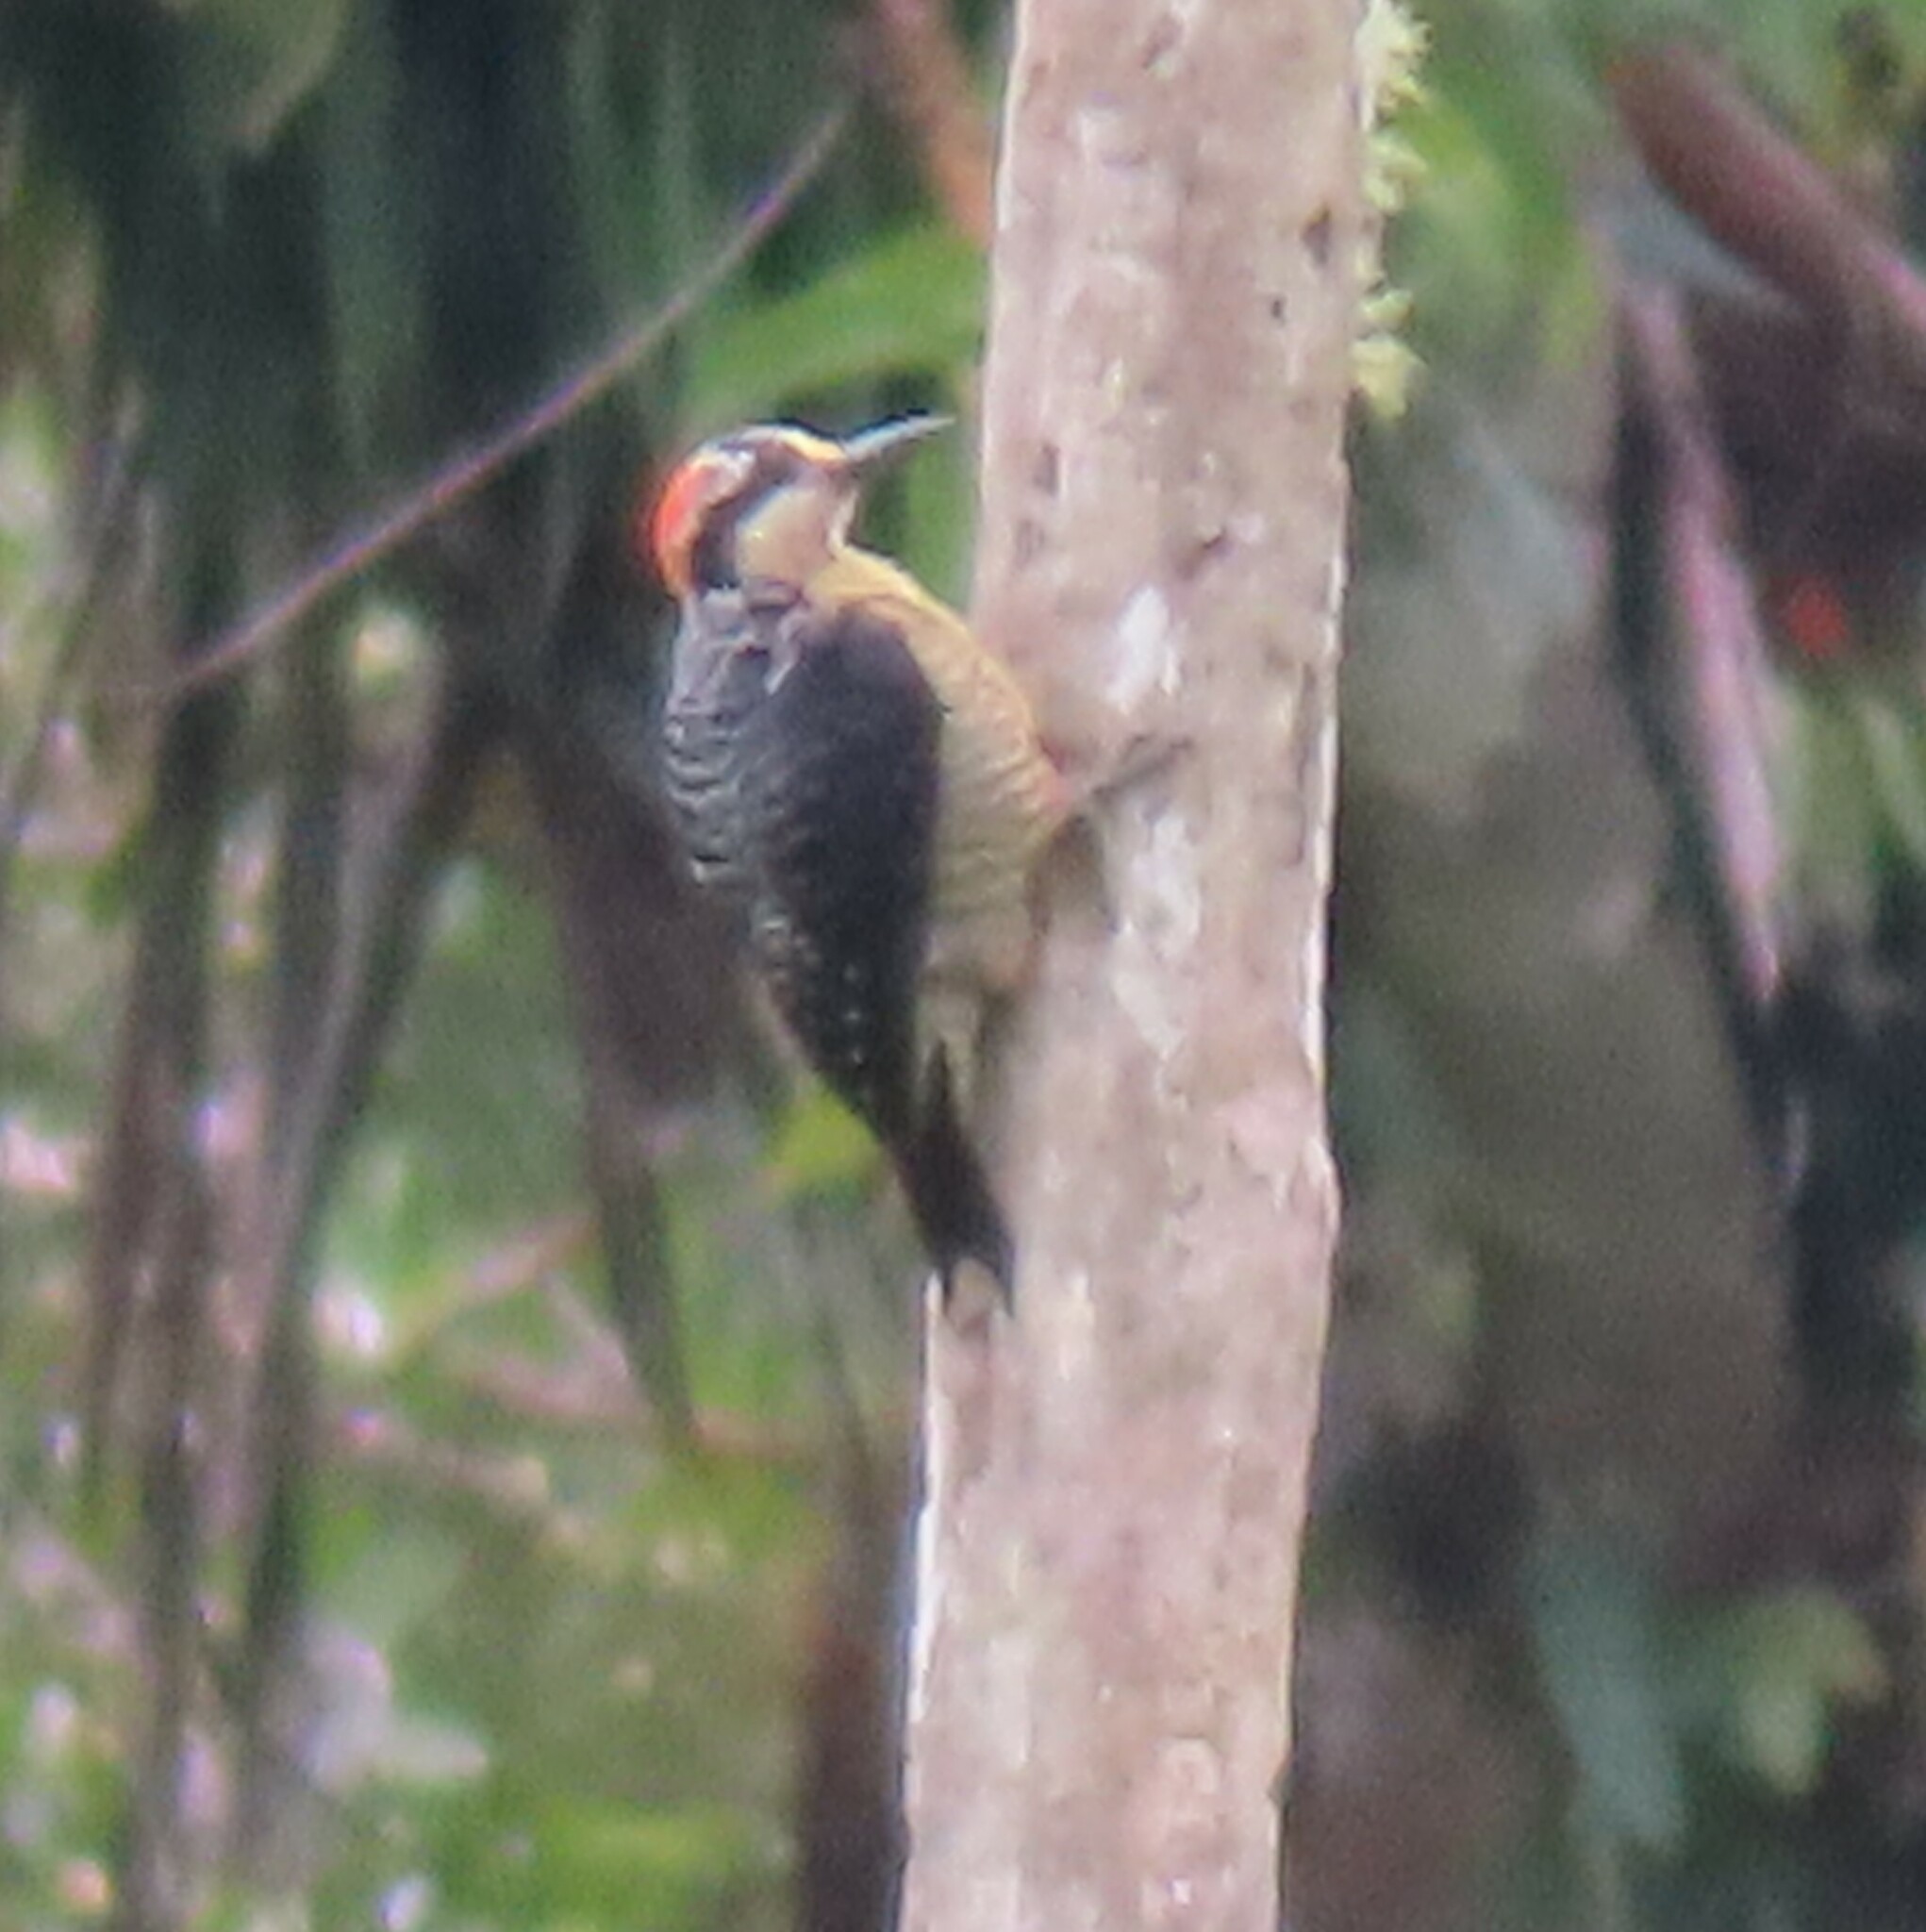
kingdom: Animalia
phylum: Chordata
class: Aves
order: Piciformes
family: Picidae
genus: Melanerpes
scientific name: Melanerpes pucherani
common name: Black-cheeked woodpecker
